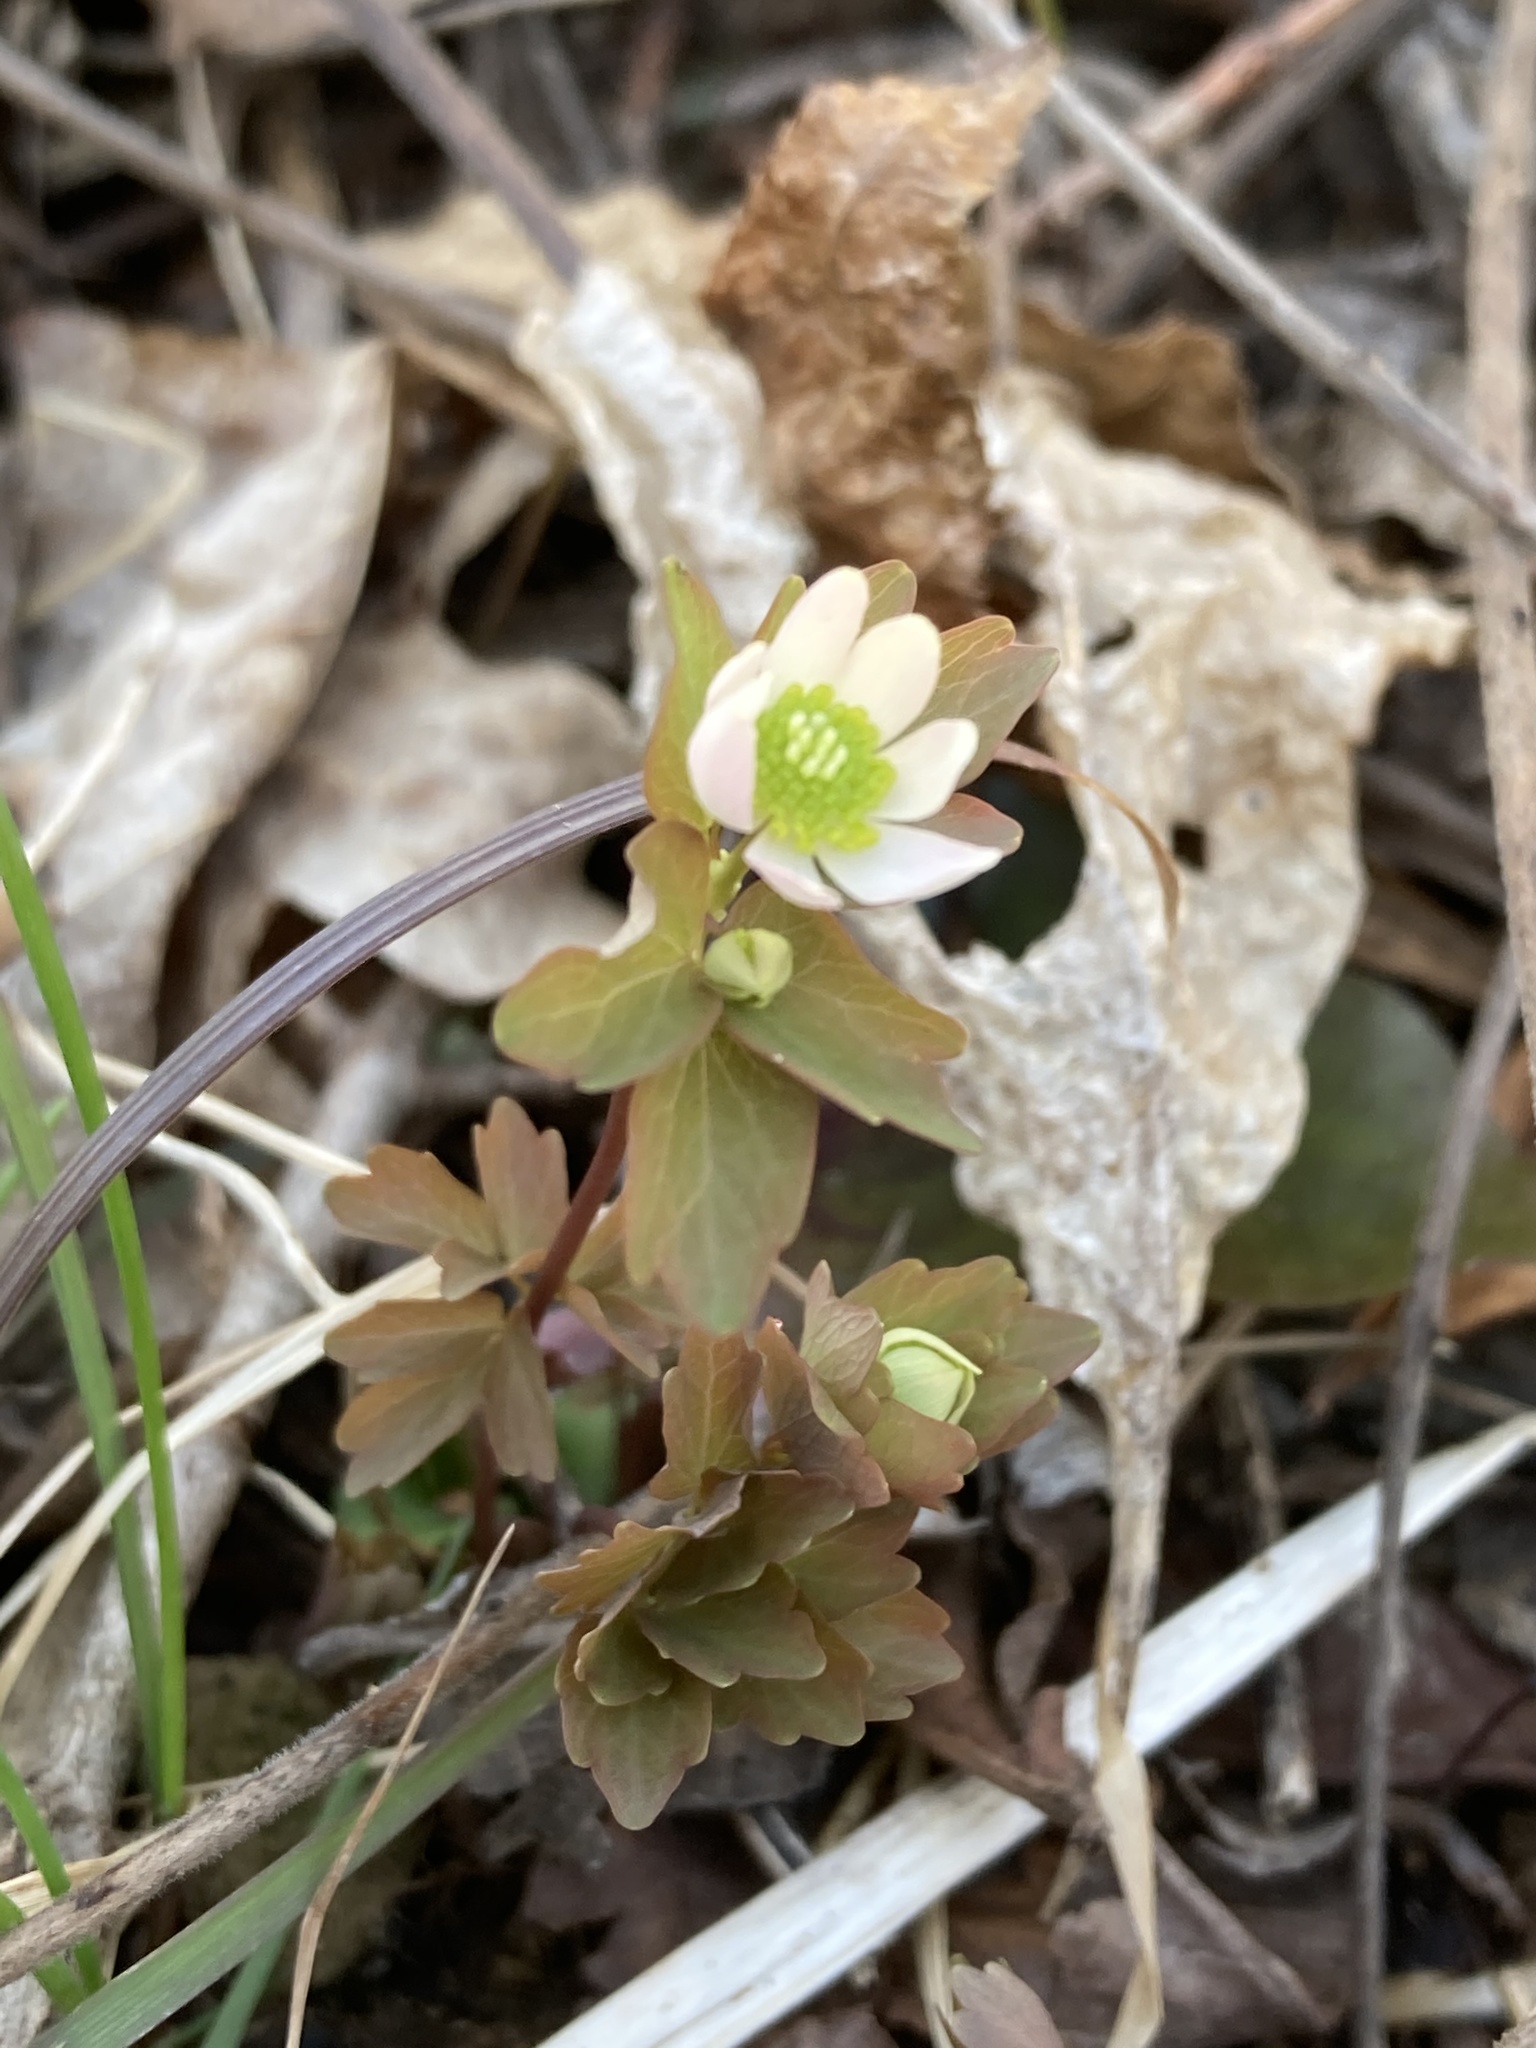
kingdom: Plantae
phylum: Tracheophyta
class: Magnoliopsida
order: Ranunculales
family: Ranunculaceae
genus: Thalictrum
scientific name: Thalictrum thalictroides
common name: Rue-anemone
